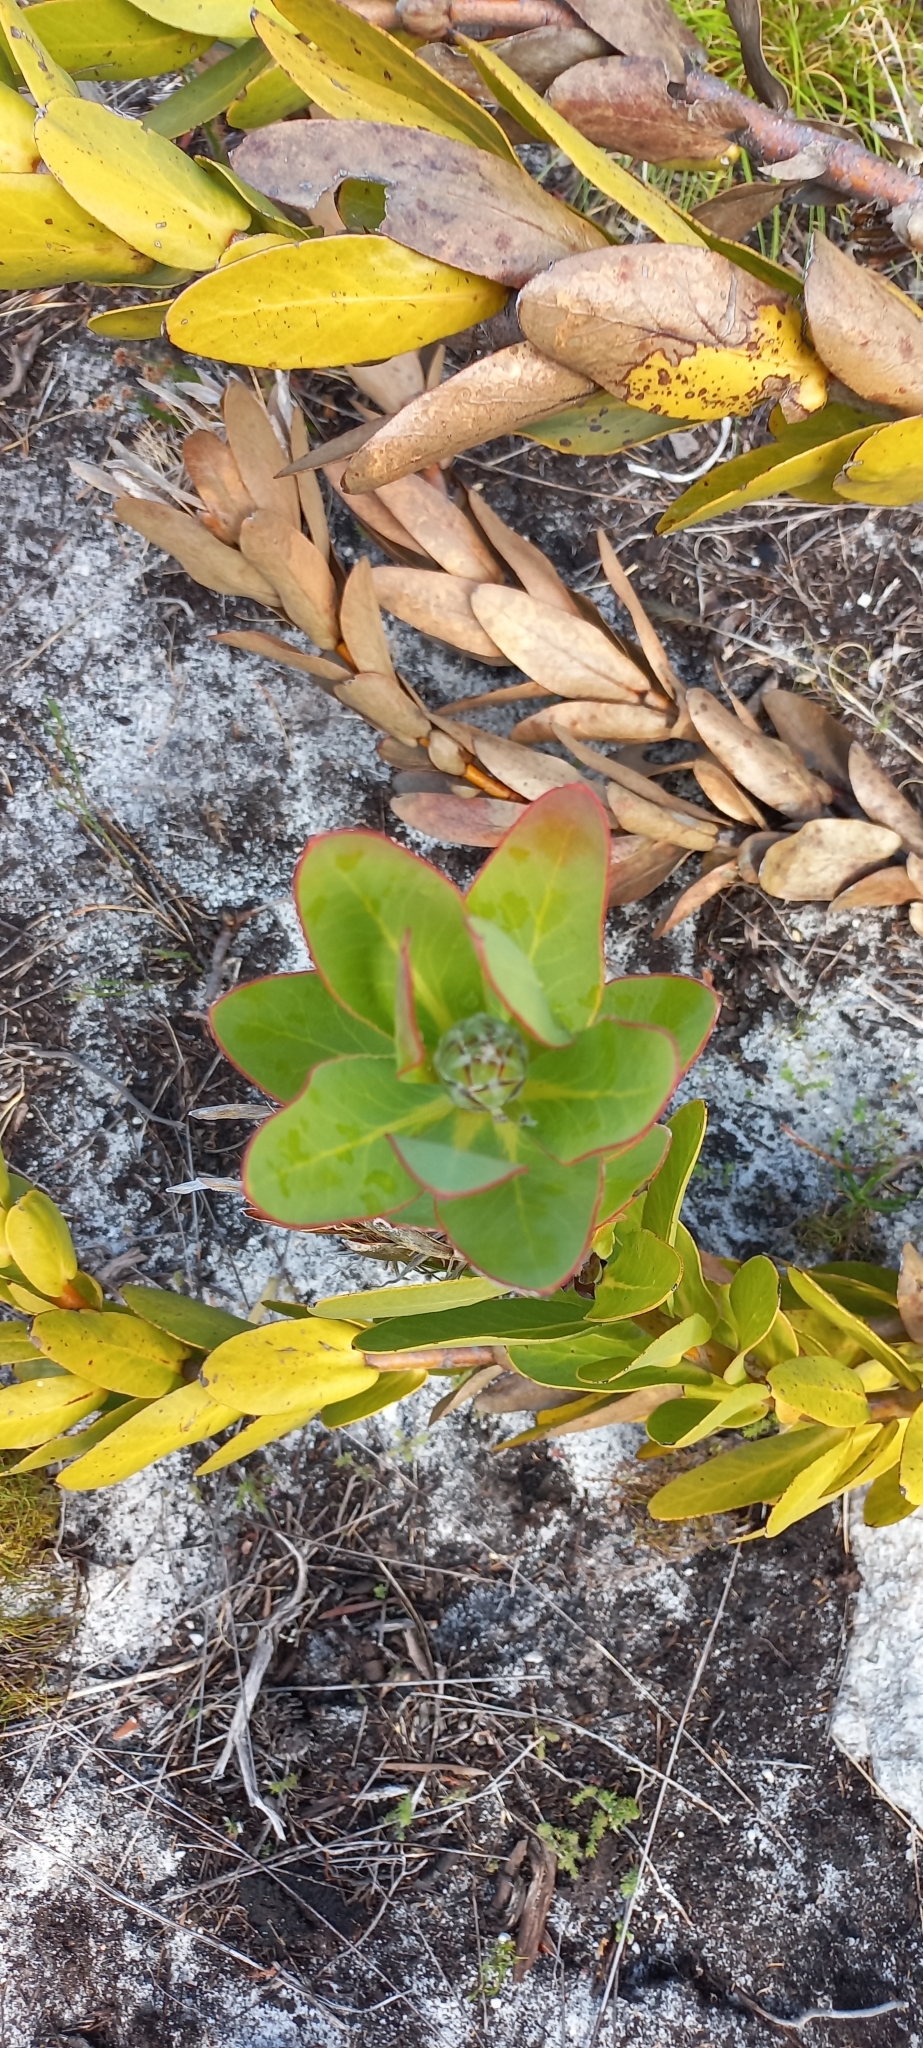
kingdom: Plantae
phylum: Tracheophyta
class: Magnoliopsida
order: Proteales
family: Proteaceae
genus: Protea
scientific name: Protea compacta
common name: Bot river protea
